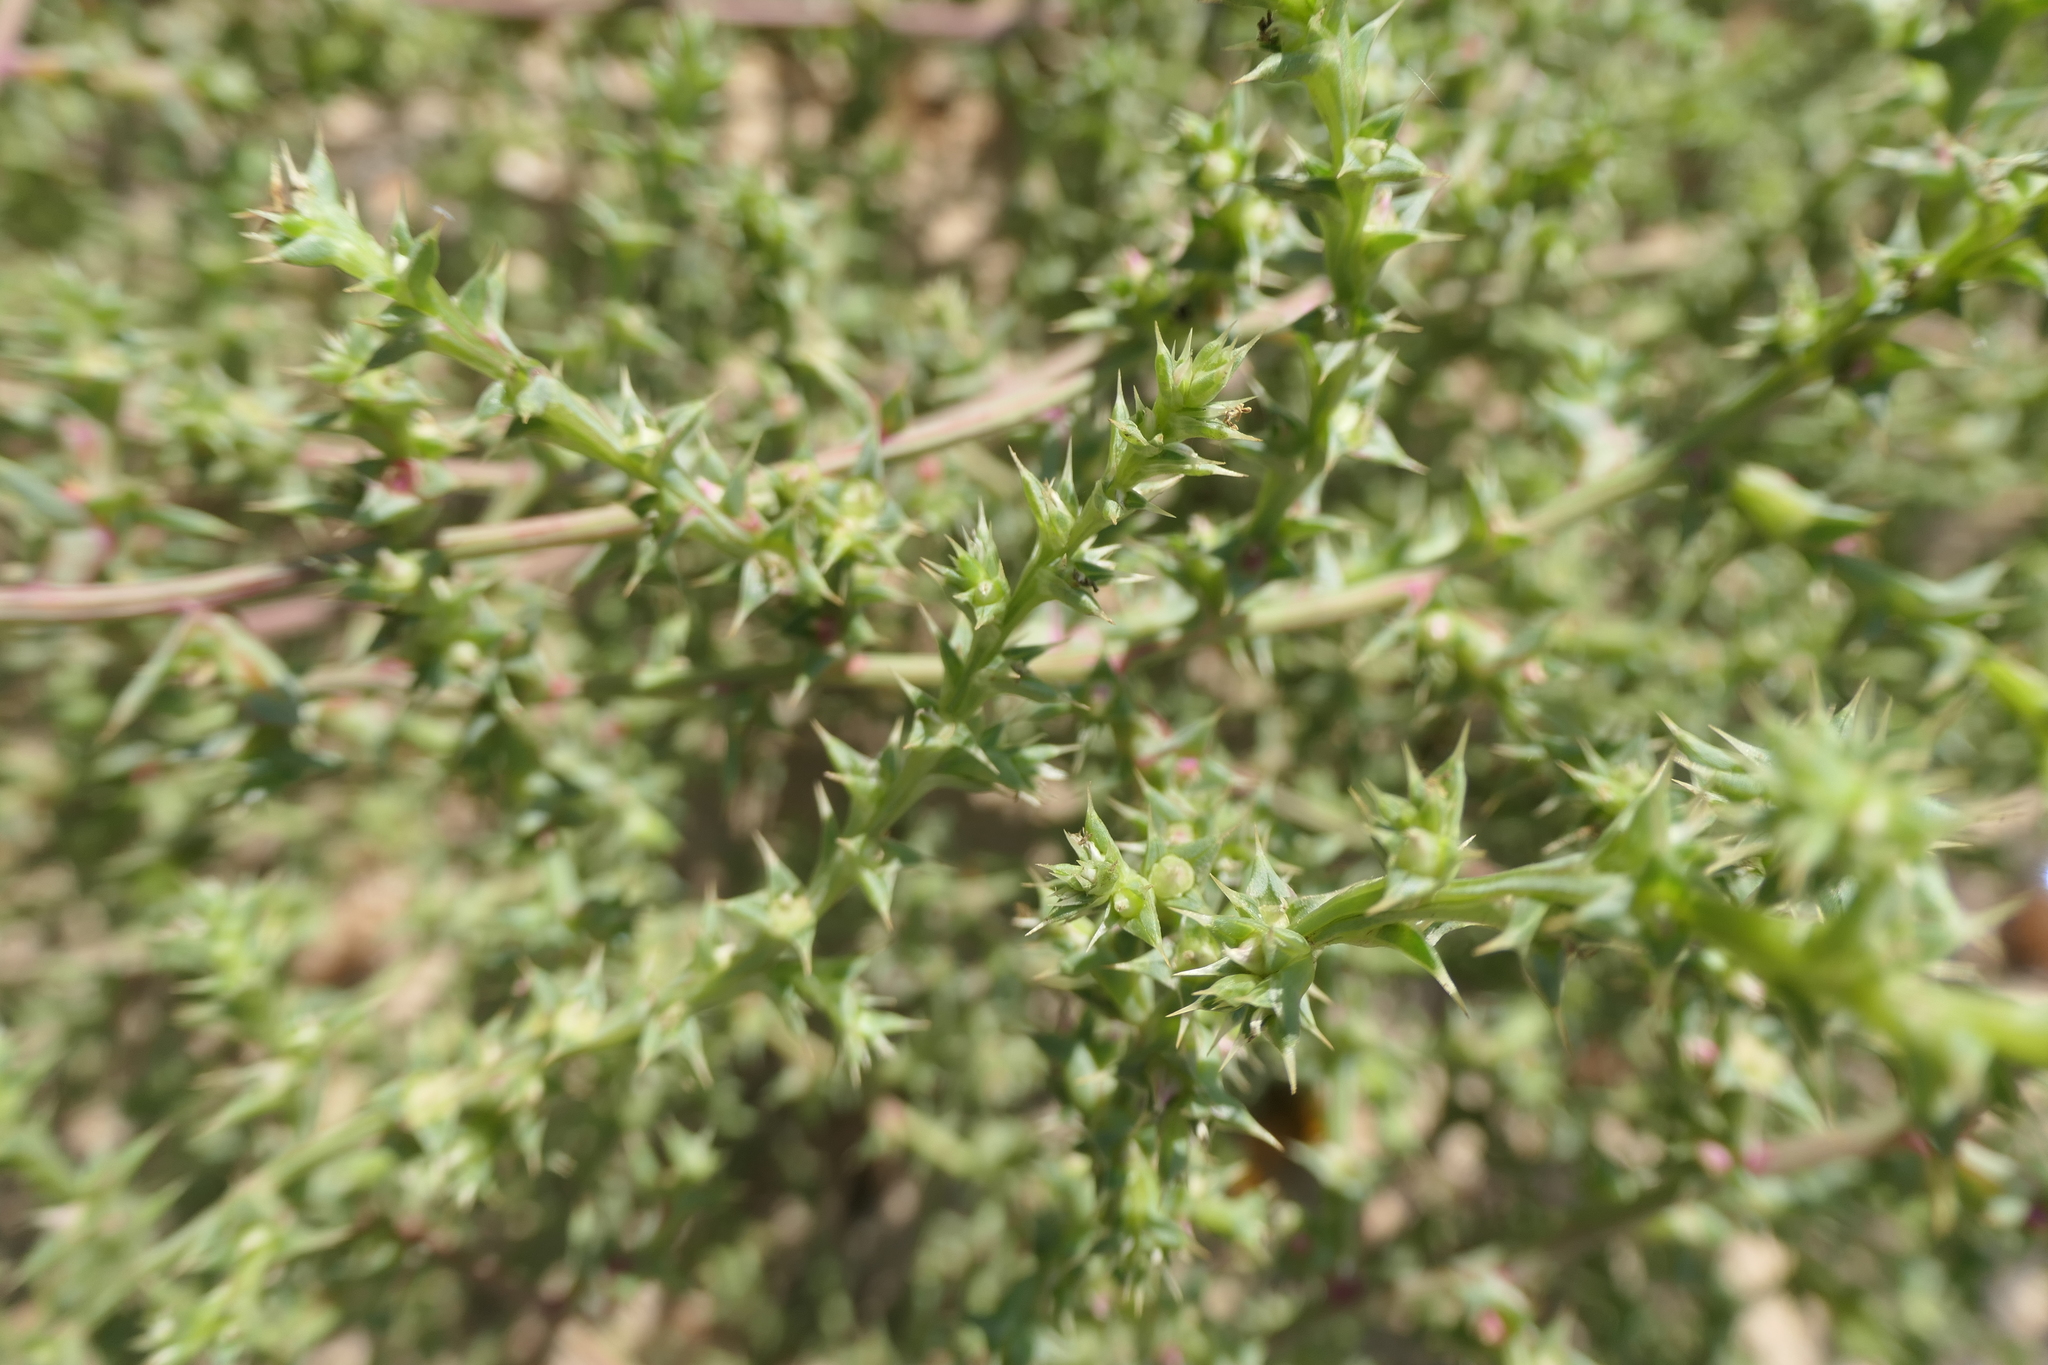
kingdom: Plantae
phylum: Tracheophyta
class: Magnoliopsida
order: Caryophyllales
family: Amaranthaceae
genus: Salsola
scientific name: Salsola kali
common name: Saltwort
